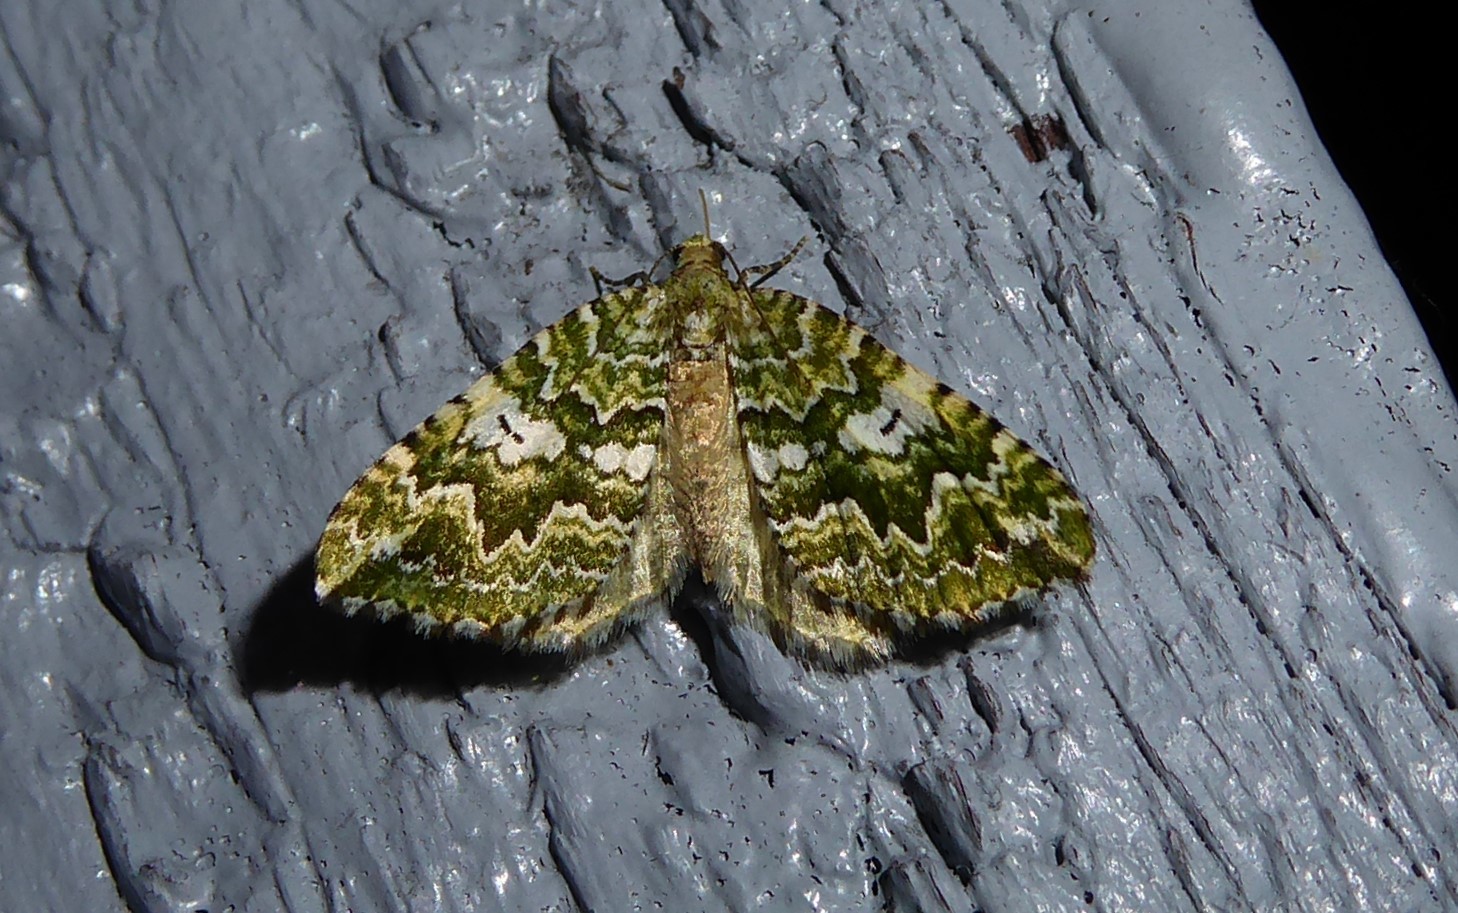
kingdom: Animalia
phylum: Arthropoda
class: Insecta
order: Lepidoptera
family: Geometridae
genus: Asaphodes
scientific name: Asaphodes beata
